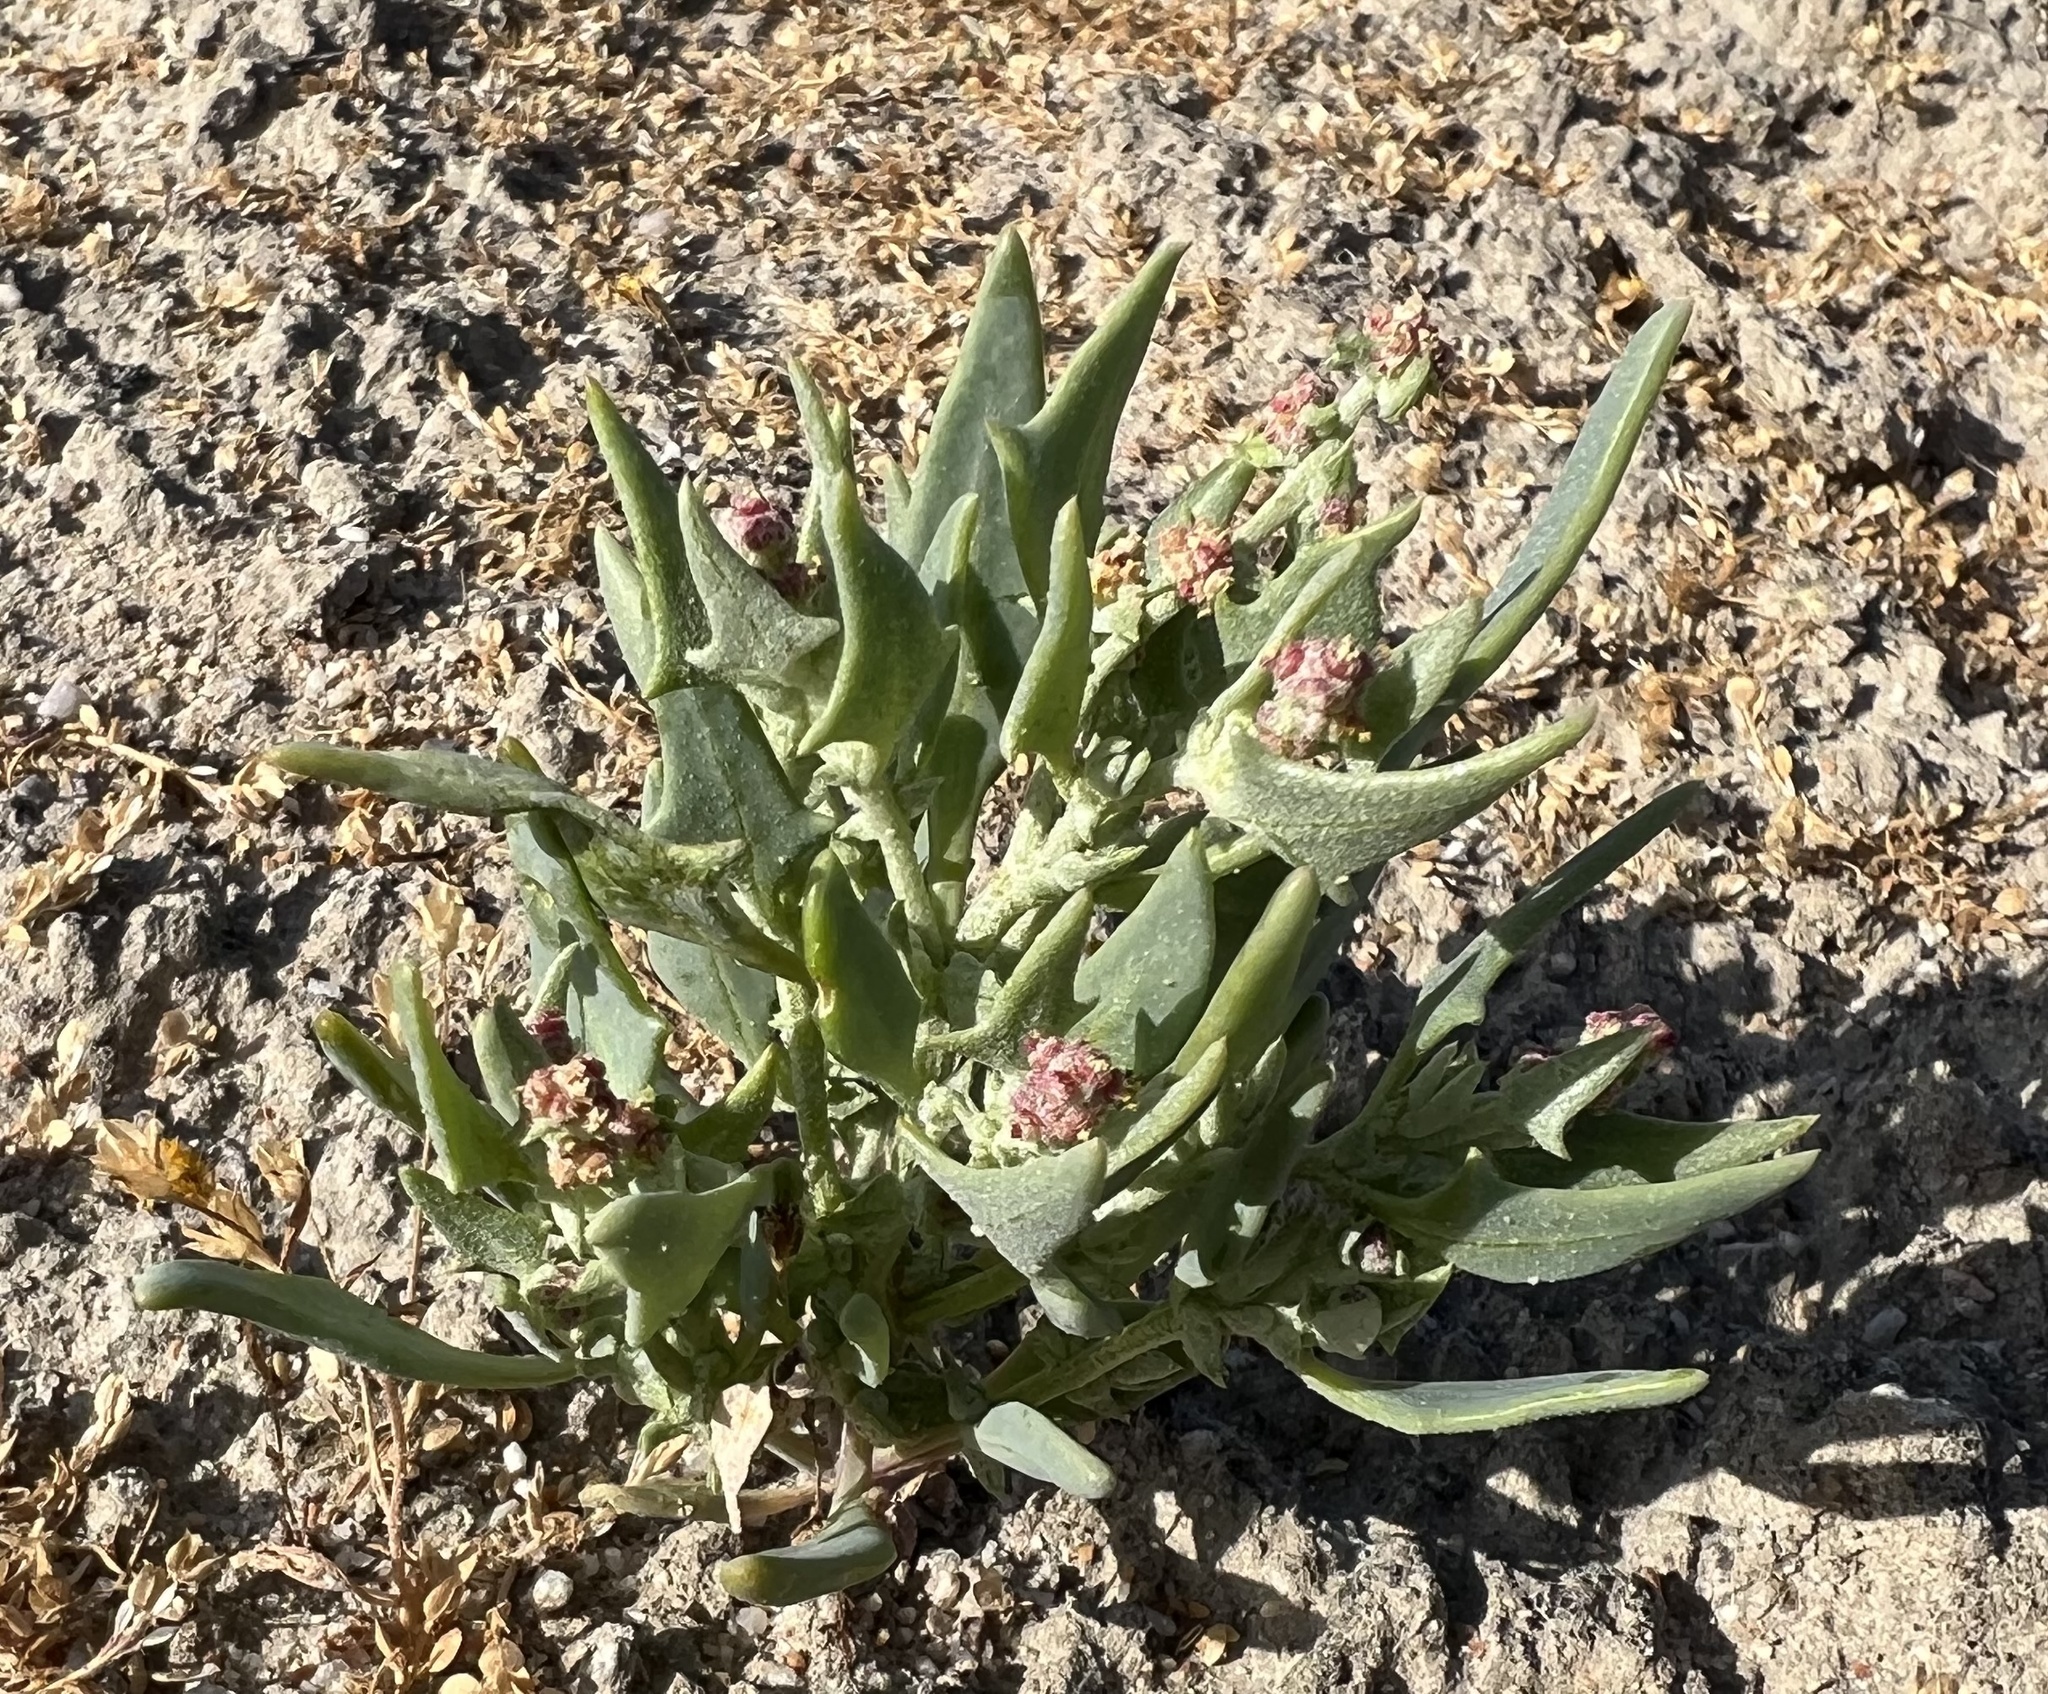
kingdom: Plantae
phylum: Tracheophyta
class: Magnoliopsida
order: Caryophyllales
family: Amaranthaceae
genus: Stutzia
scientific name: Stutzia covillei
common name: Coville's orach
